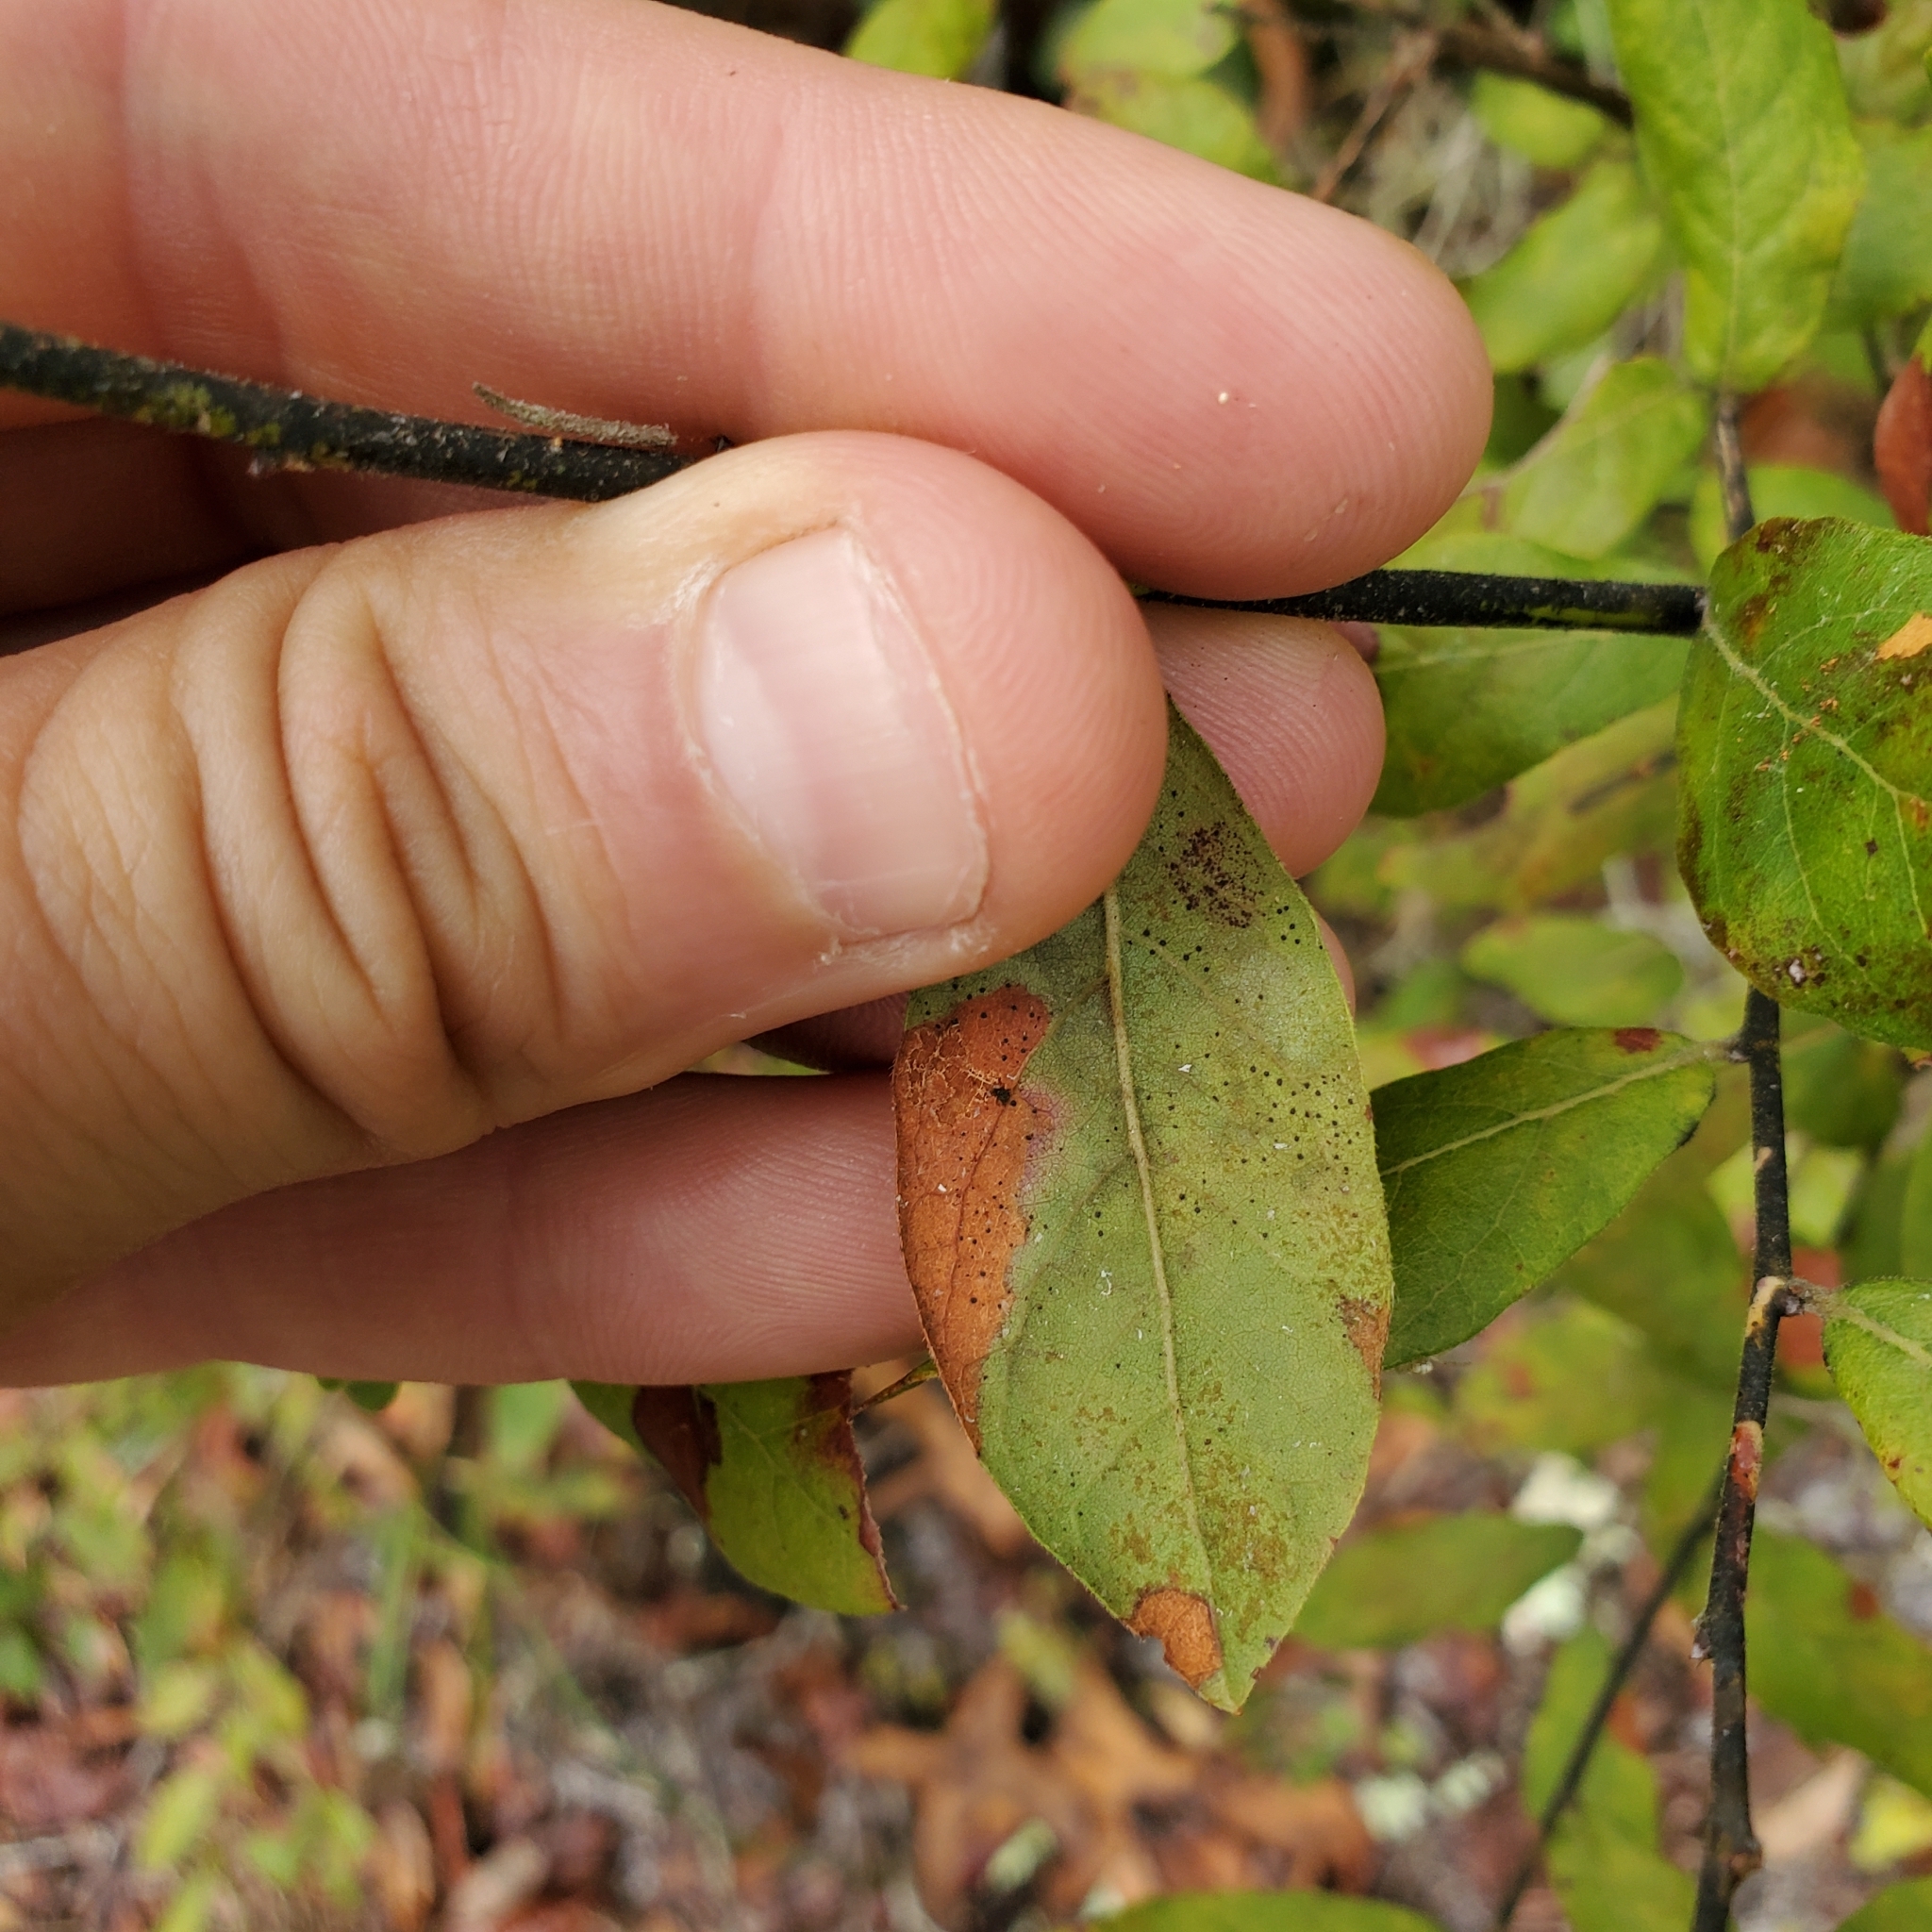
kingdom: Plantae
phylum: Tracheophyta
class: Magnoliopsida
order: Ericales
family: Ericaceae
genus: Vaccinium
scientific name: Vaccinium stamineum
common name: Deerberry
